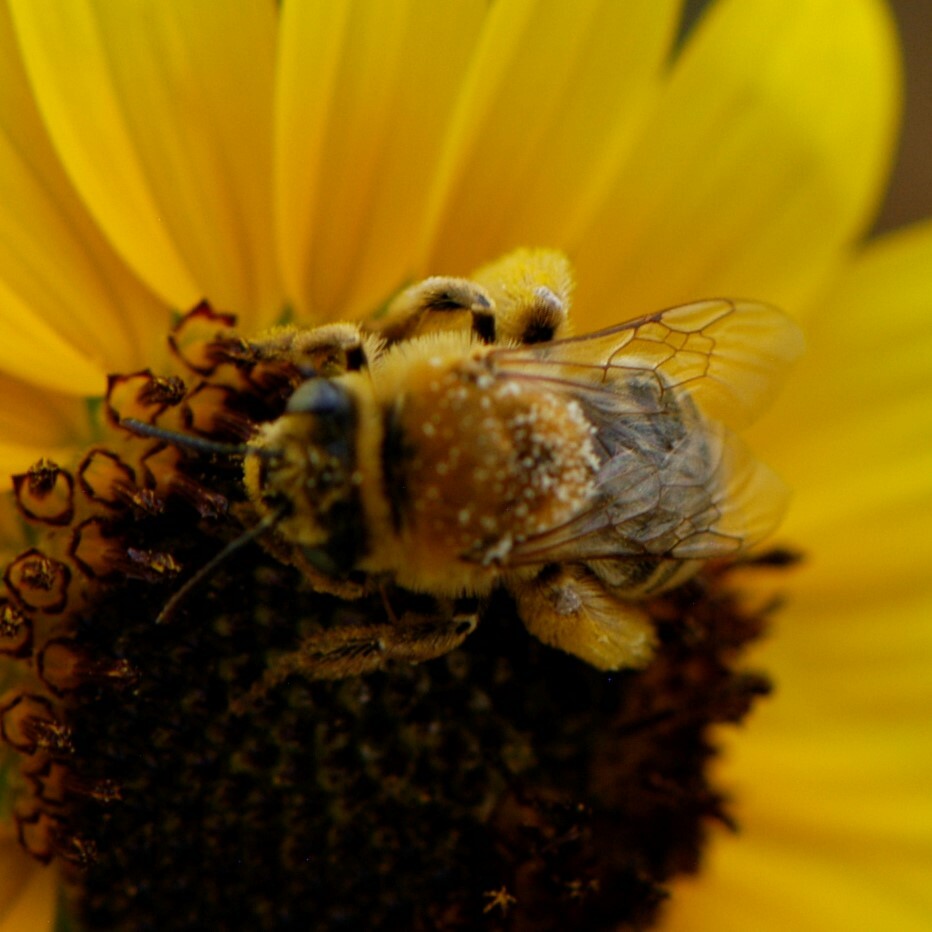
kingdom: Animalia
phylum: Arthropoda
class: Insecta
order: Hymenoptera
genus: Eumelissodes
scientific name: Eumelissodes
